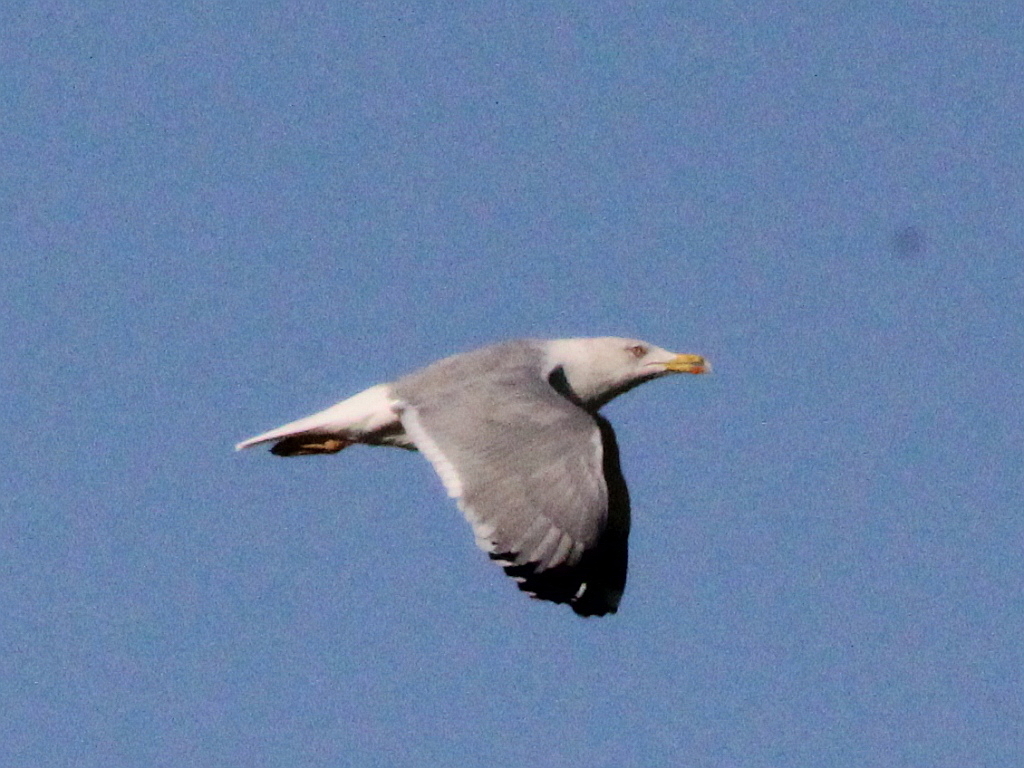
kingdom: Animalia
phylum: Chordata
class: Aves
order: Charadriiformes
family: Laridae
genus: Larus
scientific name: Larus michahellis
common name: Yellow-legged gull
